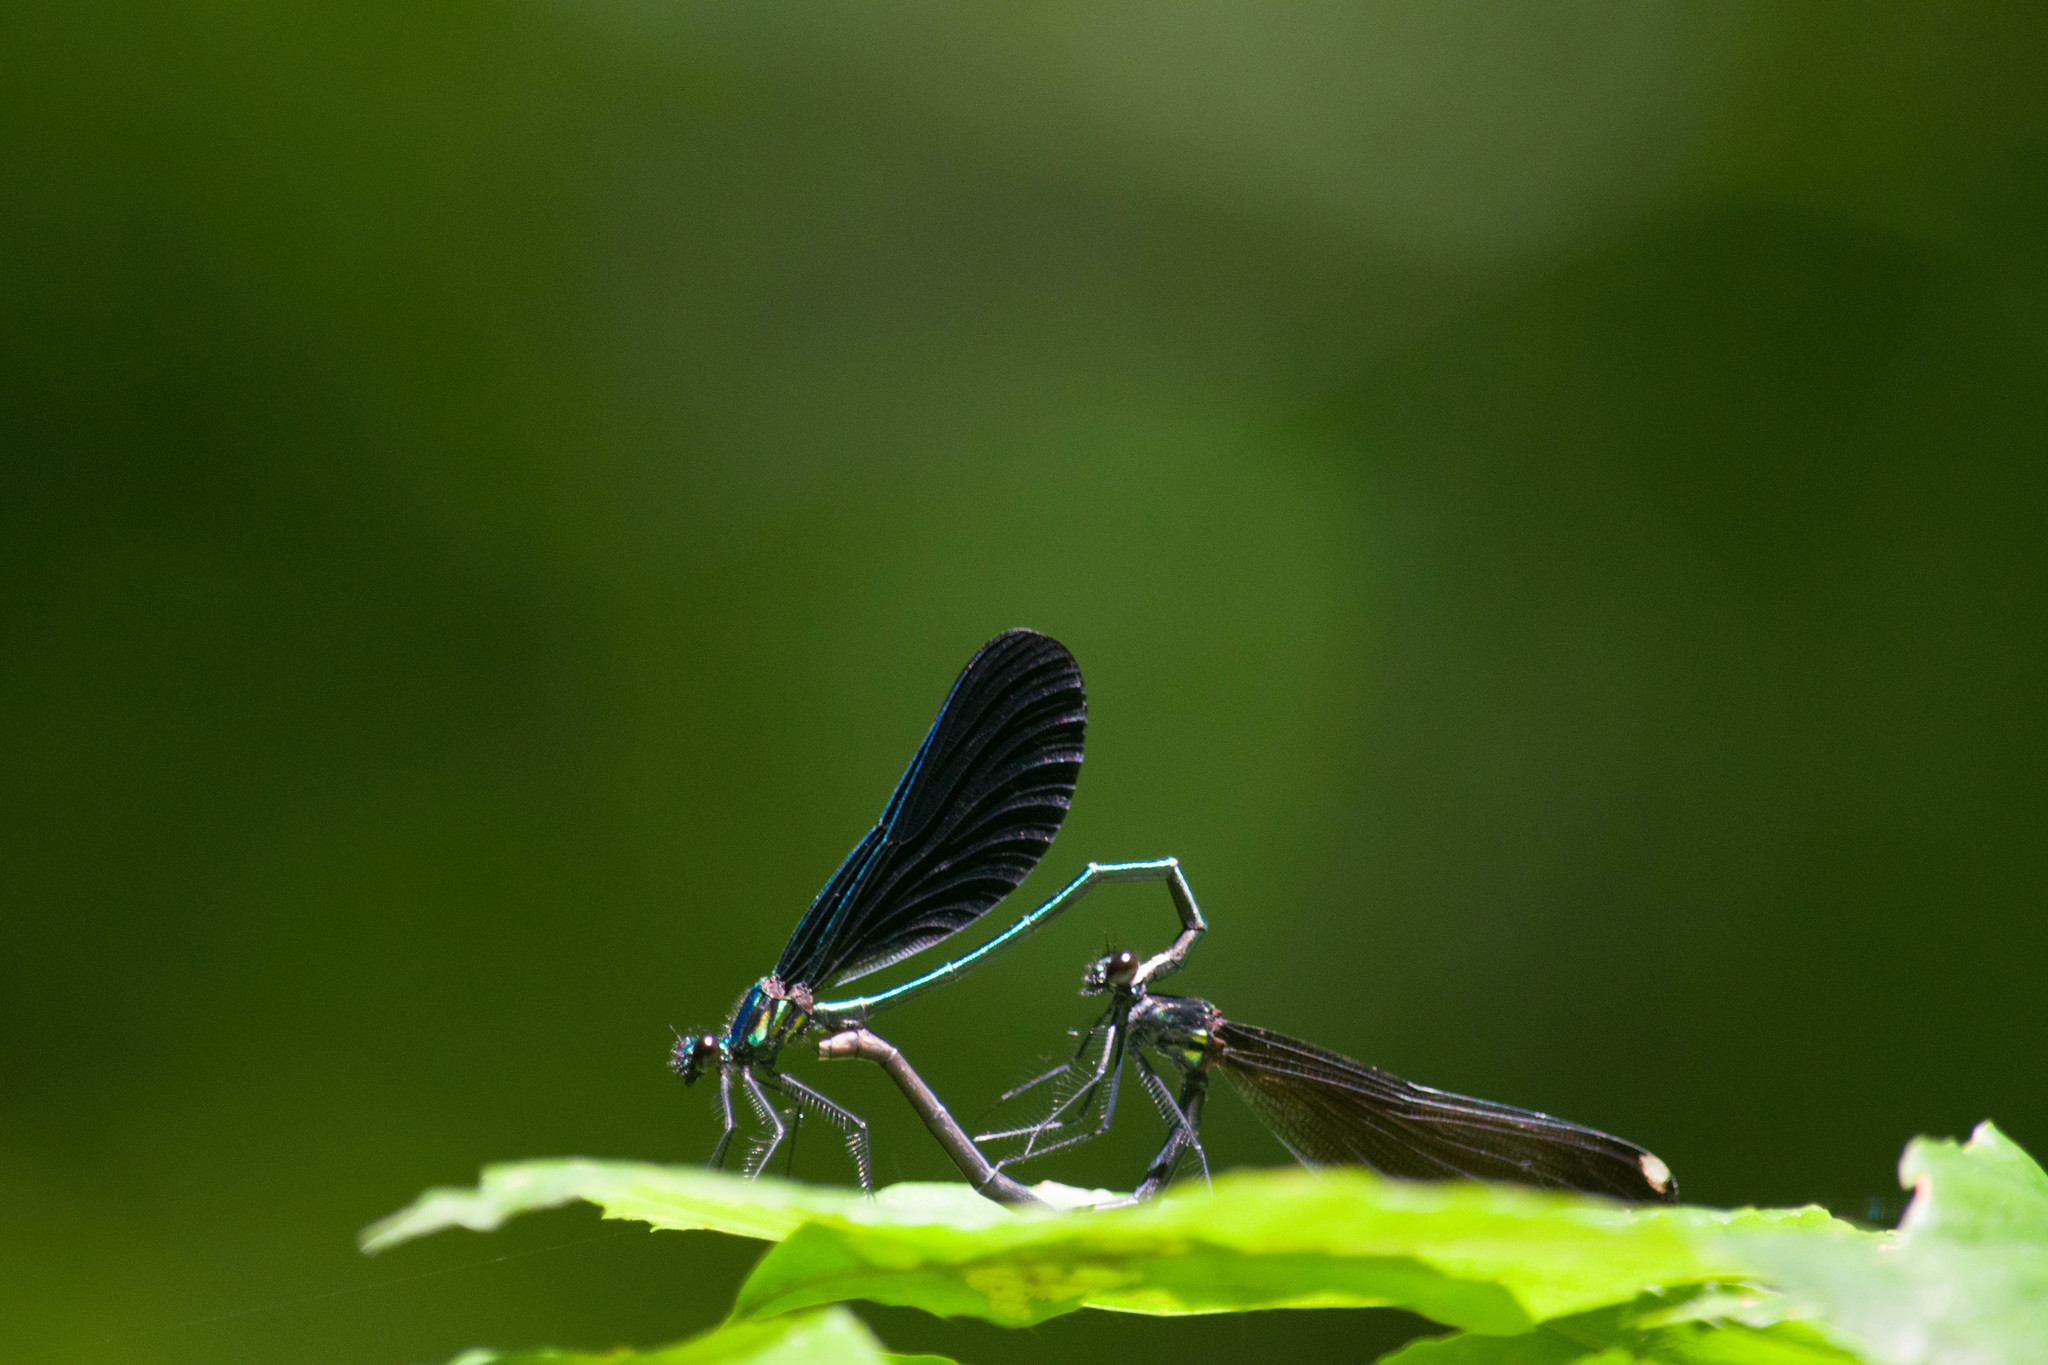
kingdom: Animalia
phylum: Arthropoda
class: Insecta
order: Odonata
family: Calopterygidae
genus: Calopteryx
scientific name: Calopteryx maculata
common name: Ebony jewelwing
